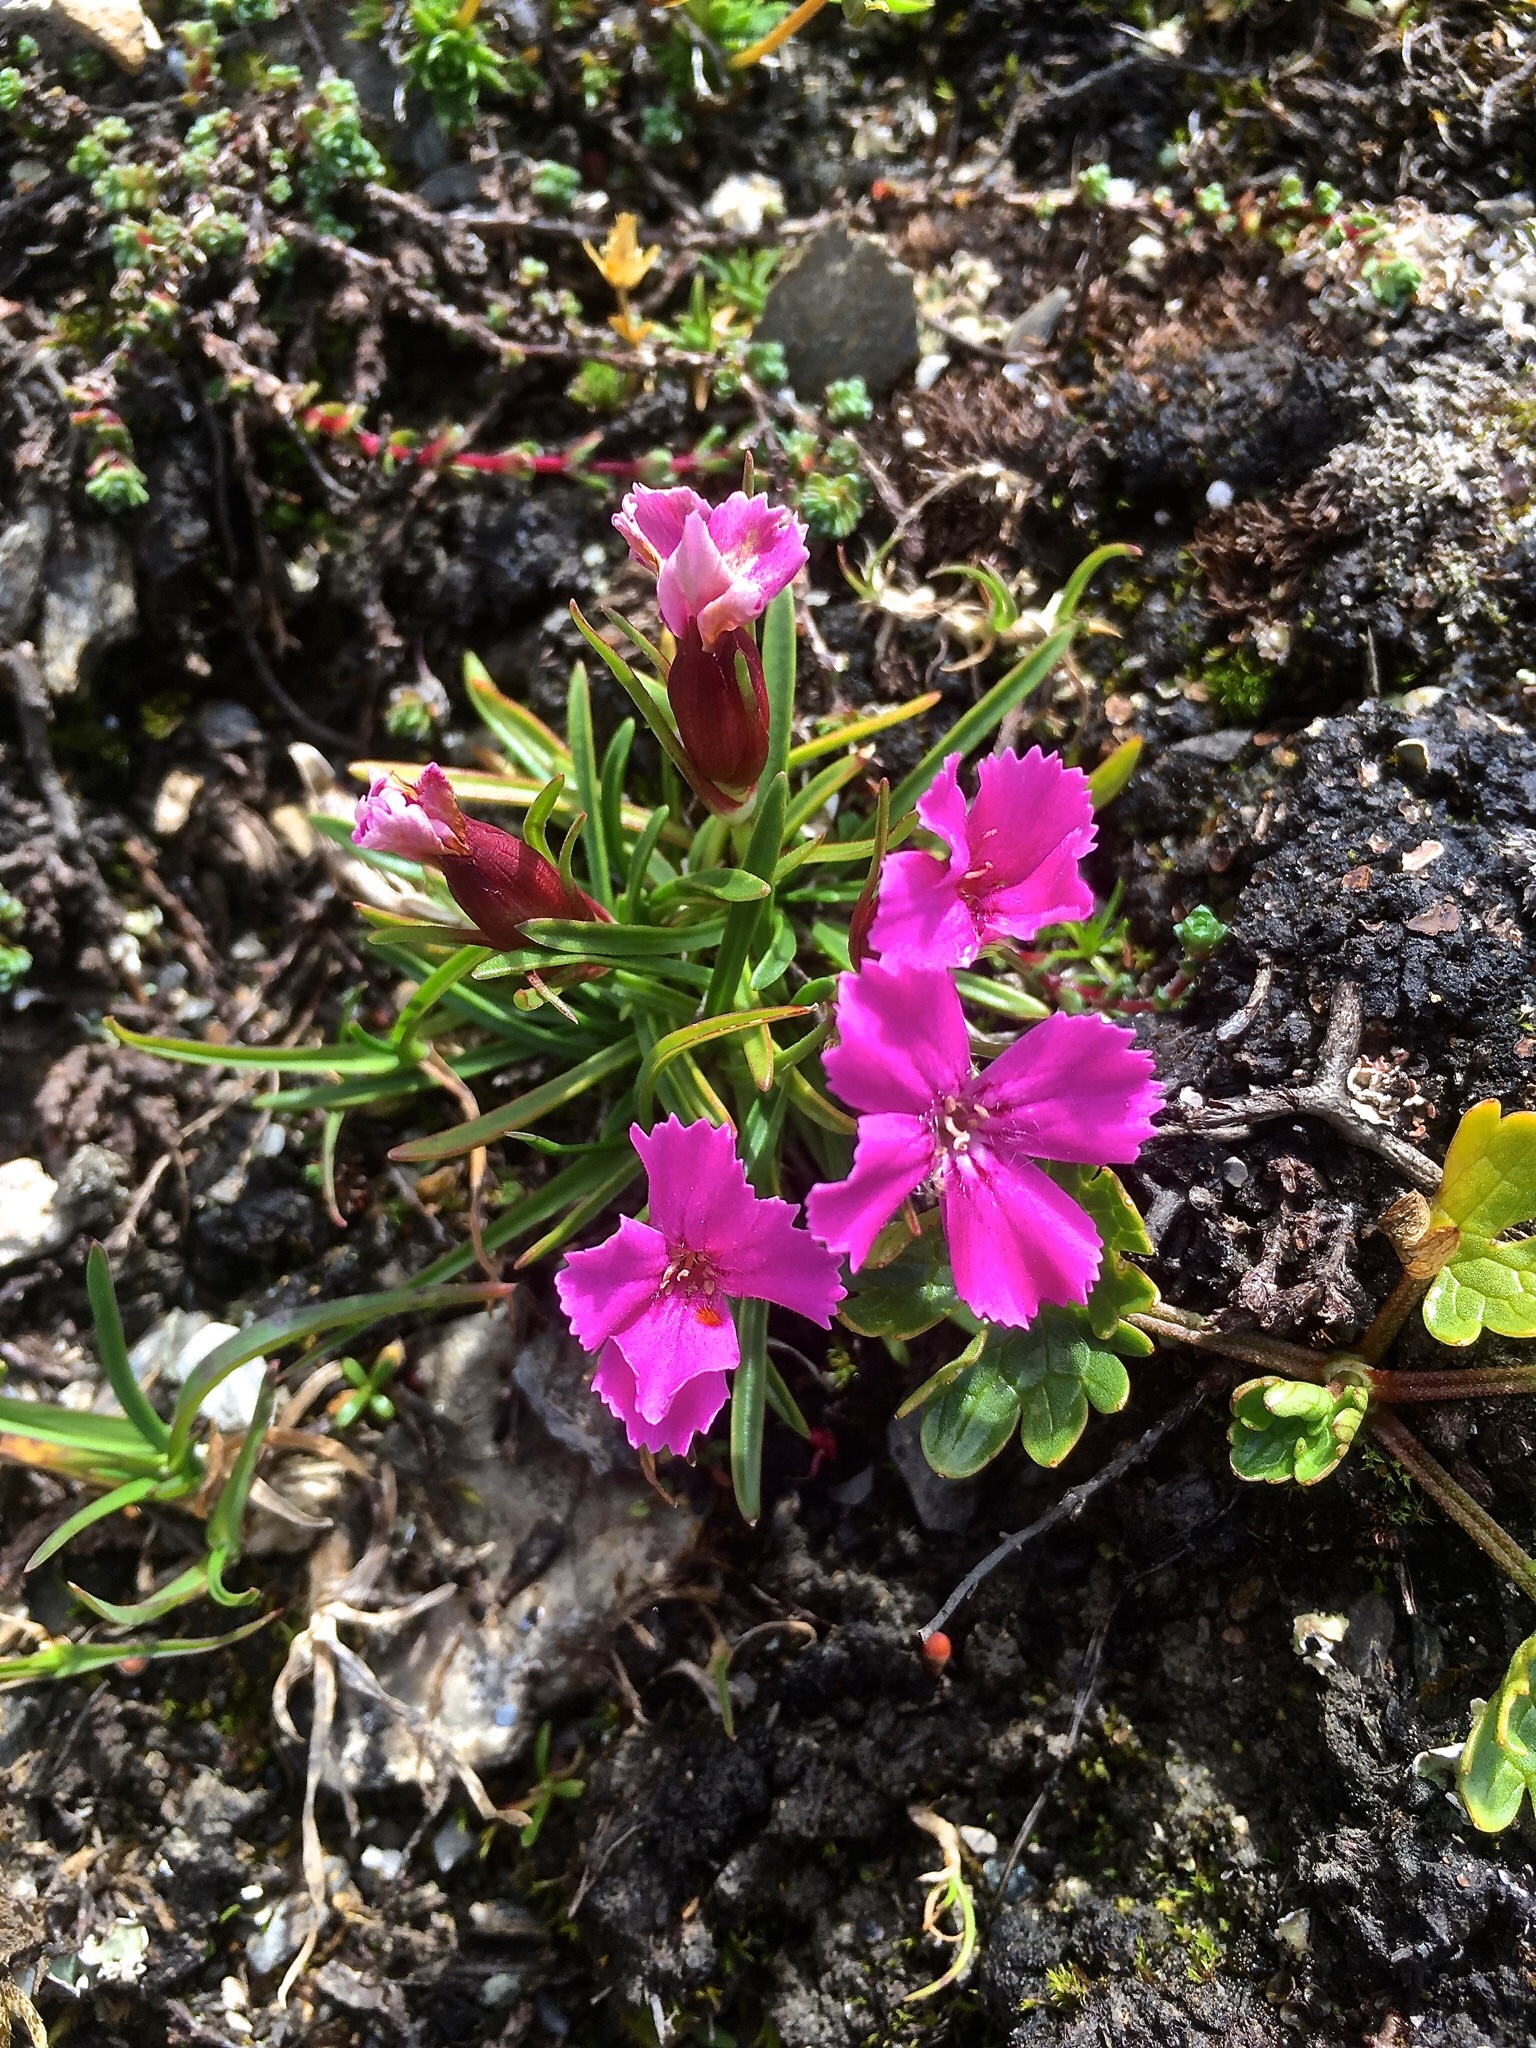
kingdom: Plantae
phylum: Tracheophyta
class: Magnoliopsida
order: Caryophyllales
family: Caryophyllaceae
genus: Dianthus
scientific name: Dianthus glacialis
